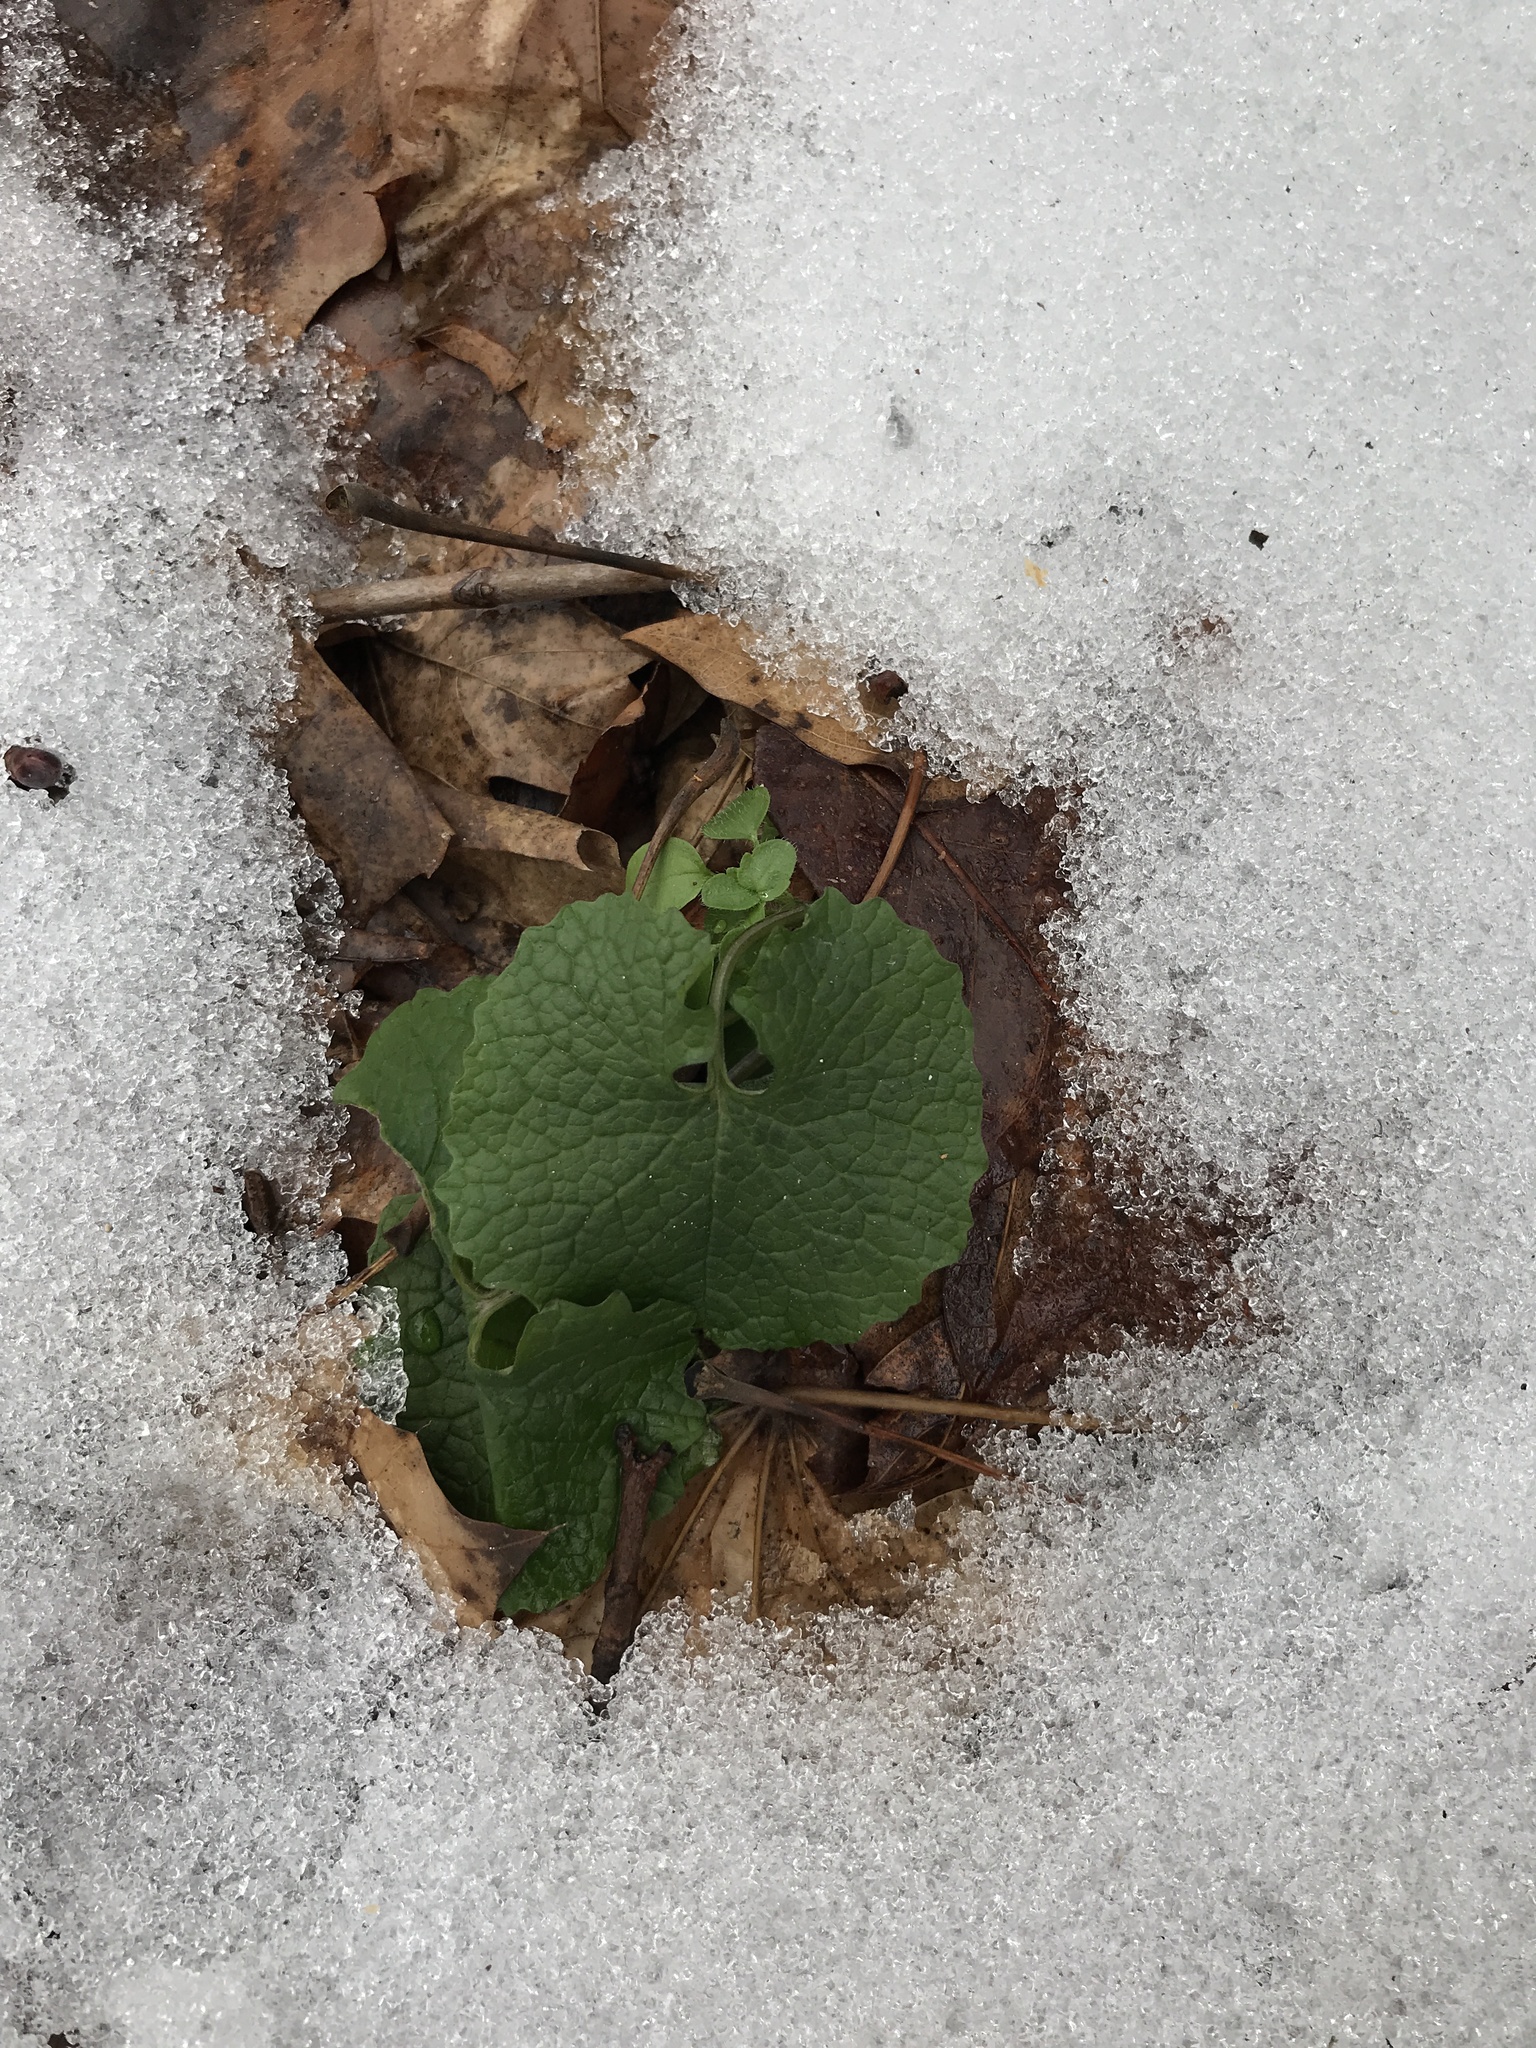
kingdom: Plantae
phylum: Tracheophyta
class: Magnoliopsida
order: Brassicales
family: Brassicaceae
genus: Alliaria
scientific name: Alliaria petiolata
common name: Garlic mustard
